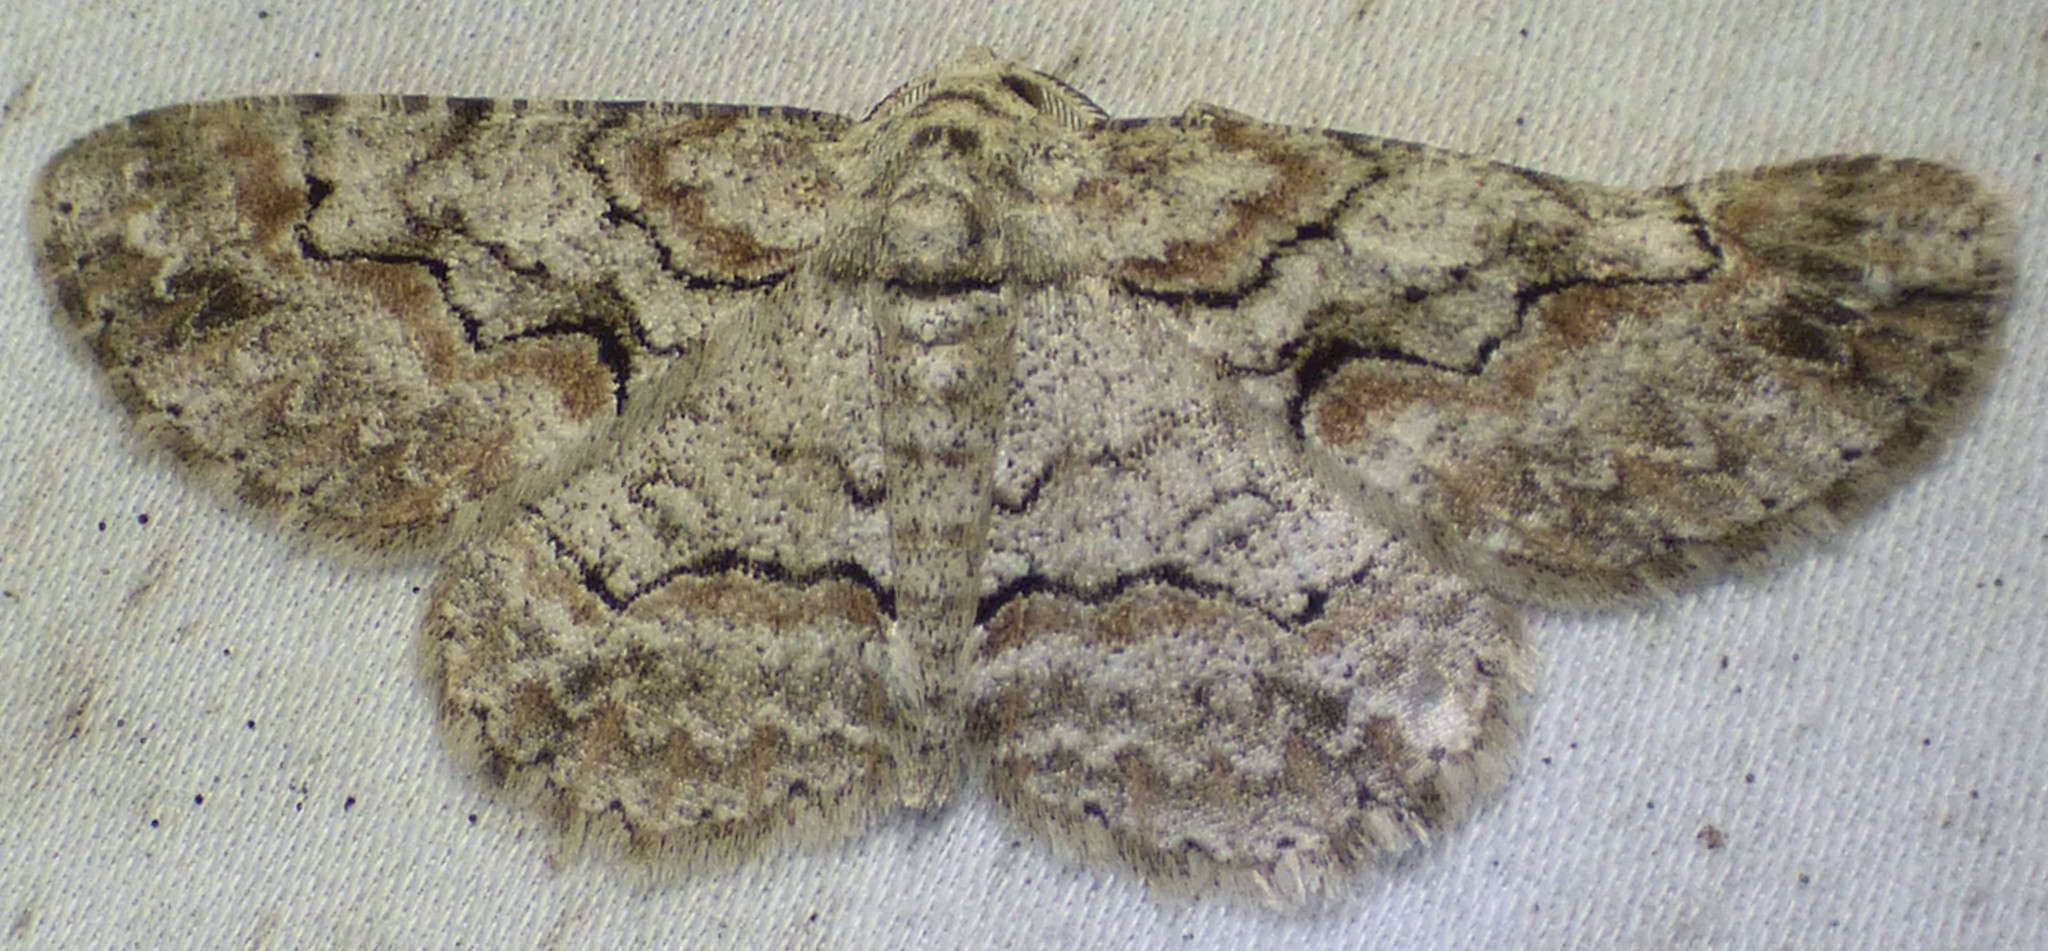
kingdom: Animalia
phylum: Arthropoda
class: Insecta
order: Lepidoptera
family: Geometridae
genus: Iridopsis
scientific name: Iridopsis defectaria
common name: Brown-shaded gray
